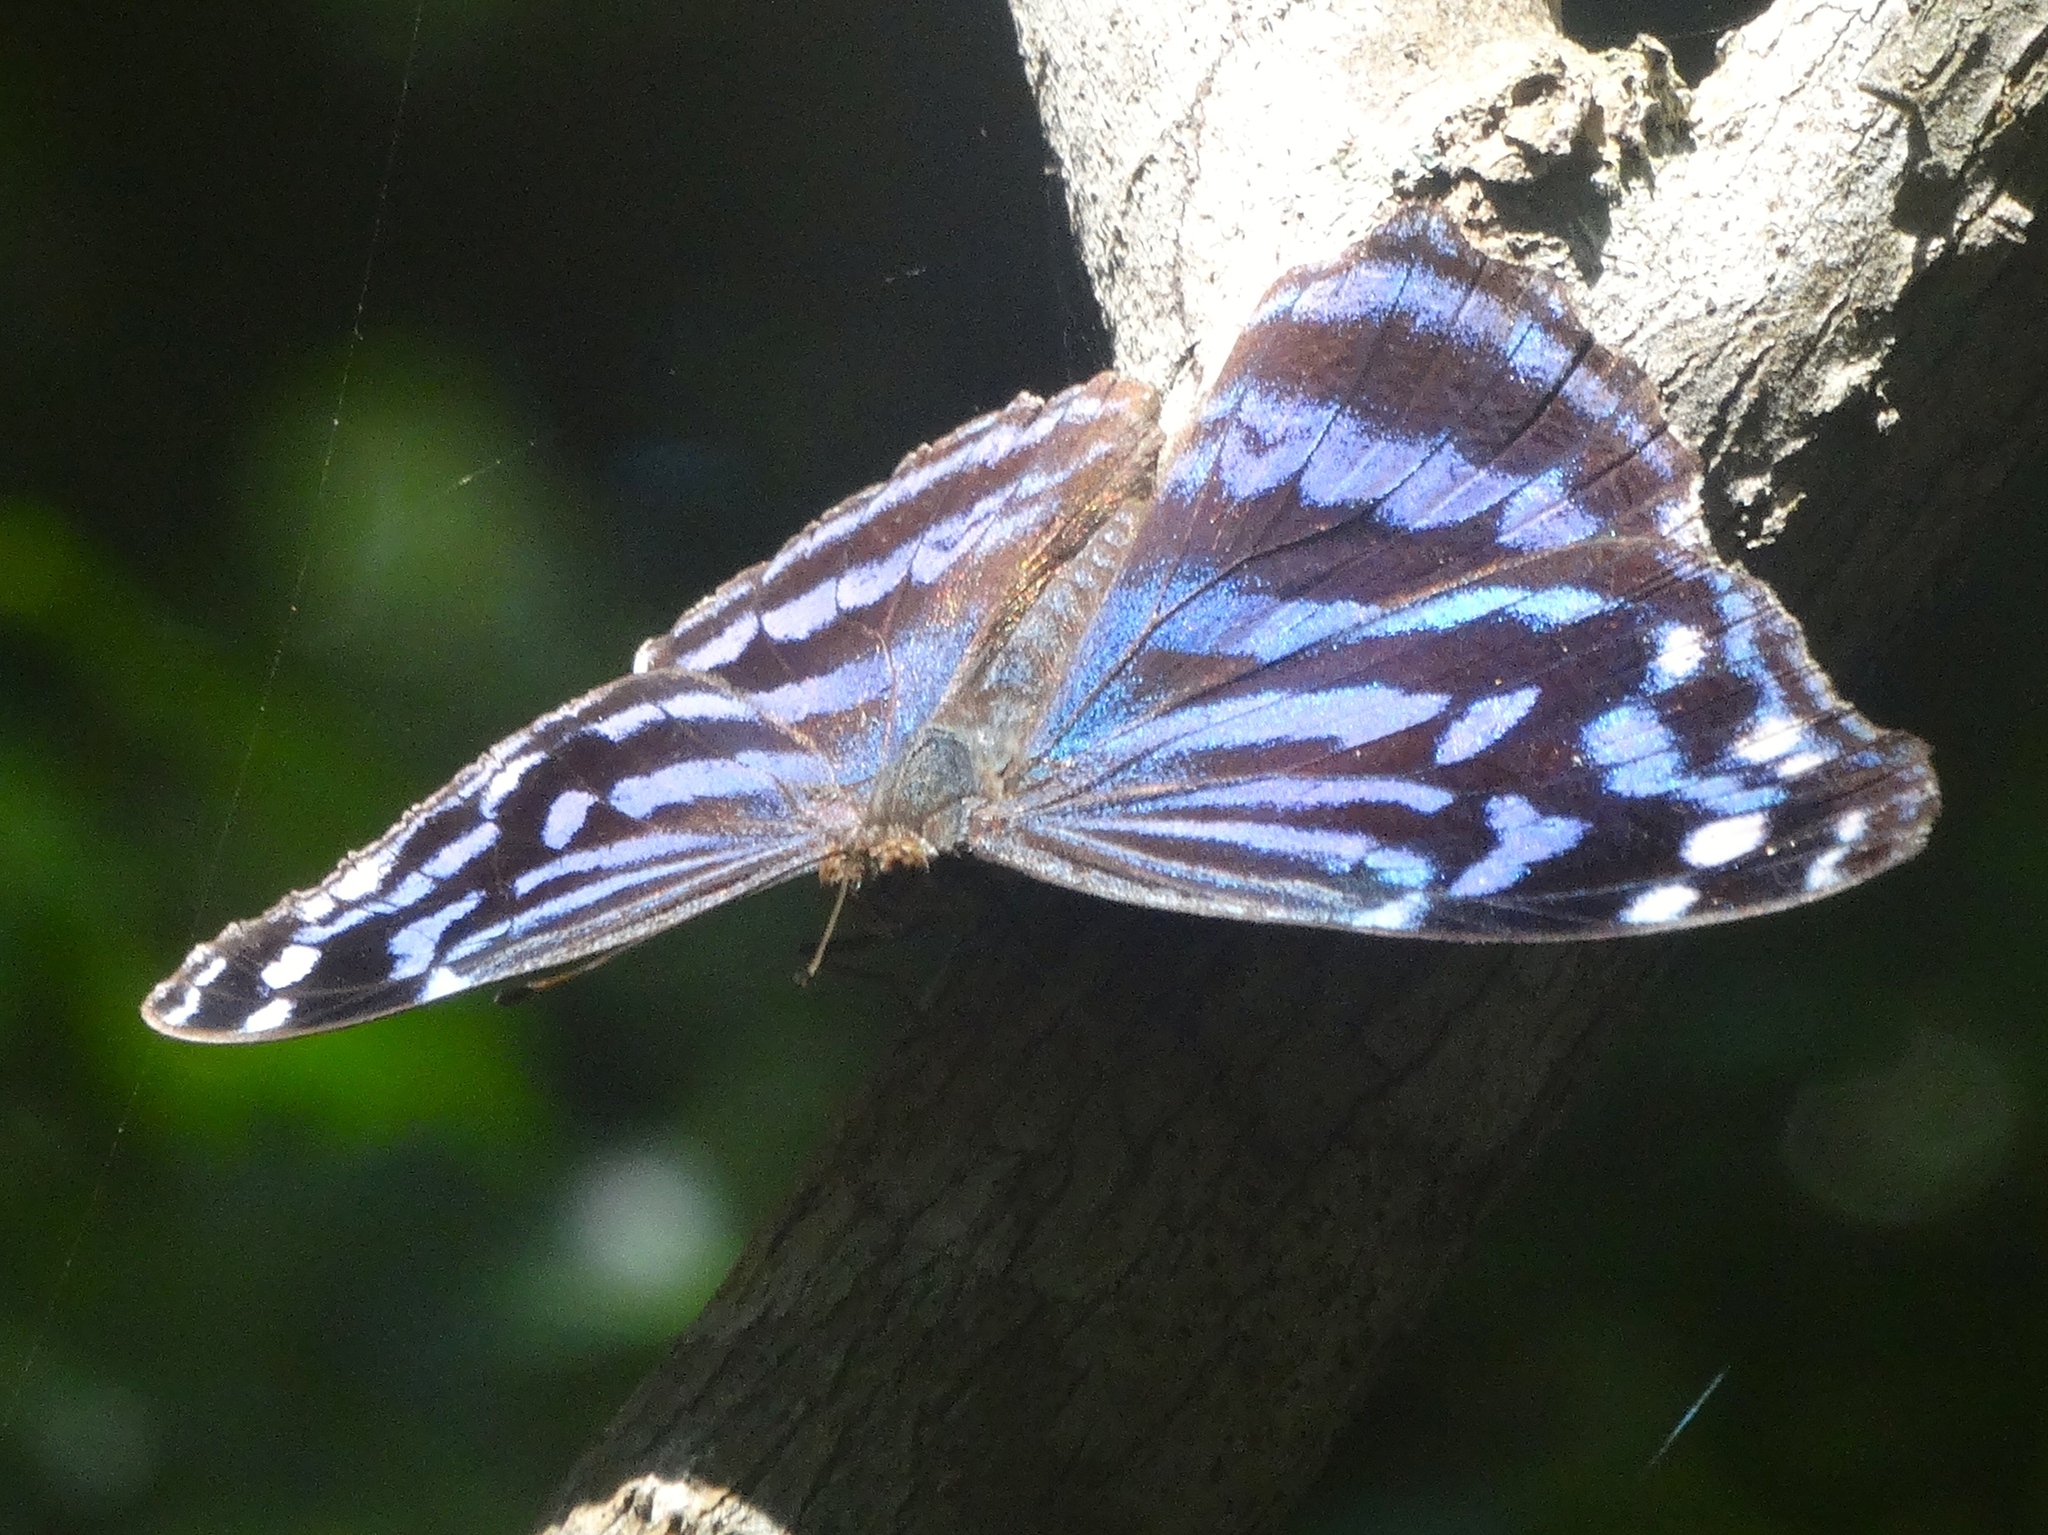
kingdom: Animalia
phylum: Arthropoda
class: Insecta
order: Lepidoptera
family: Nymphalidae
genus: Myscelia
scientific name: Myscelia ethusa
